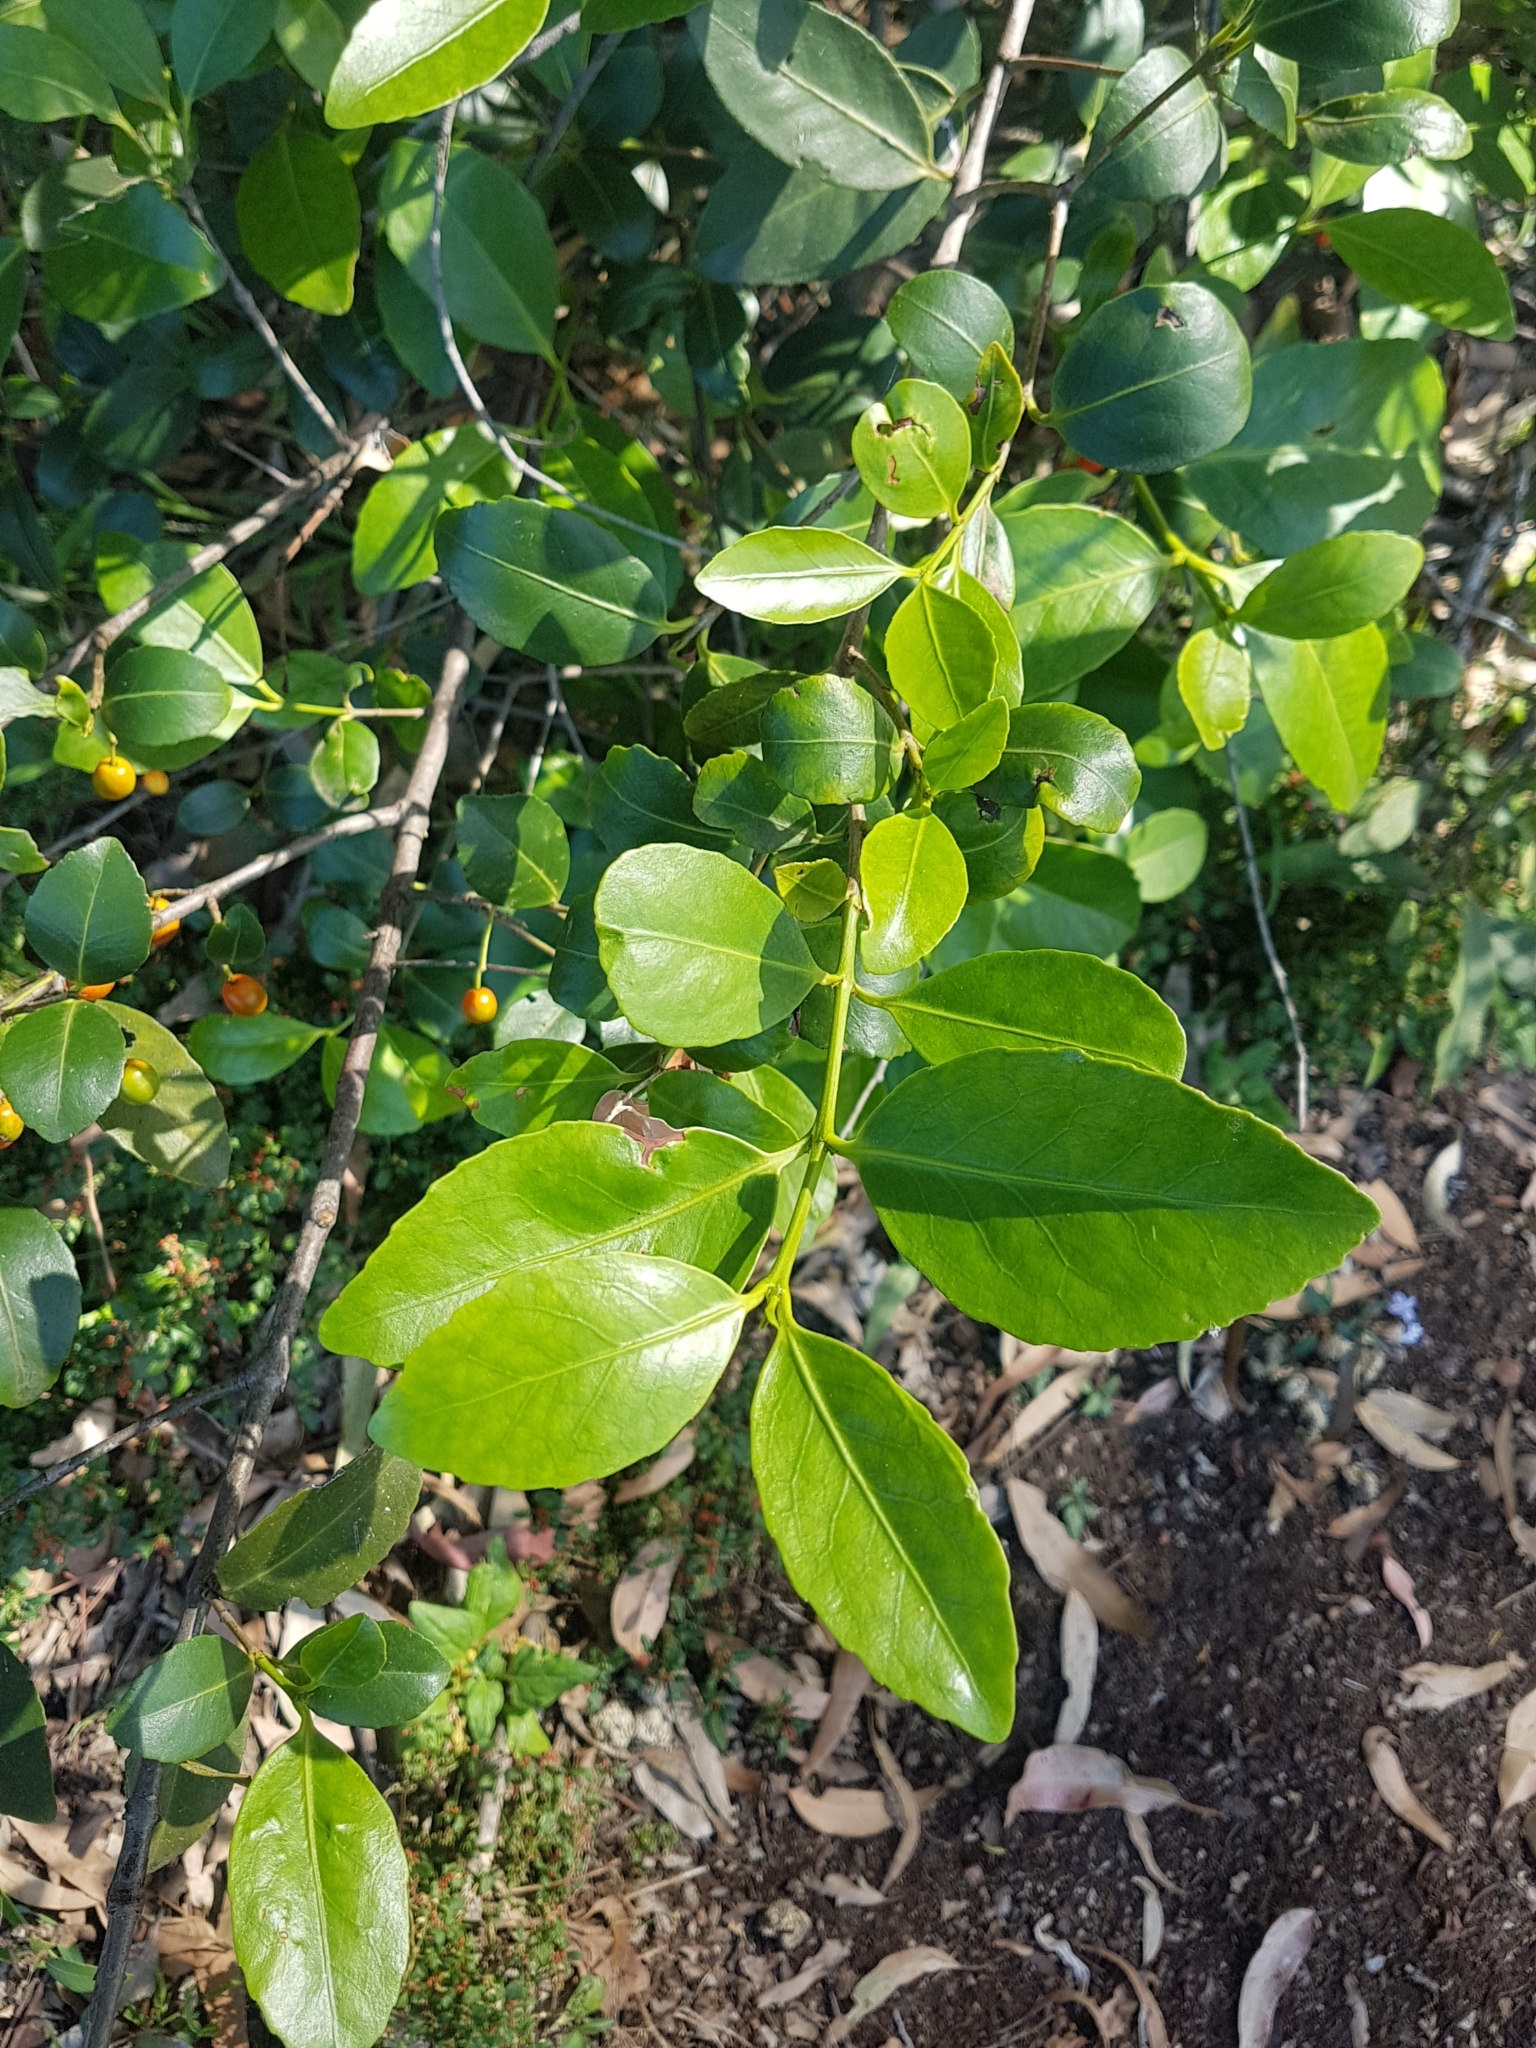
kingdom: Plantae
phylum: Tracheophyta
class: Magnoliopsida
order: Celastrales
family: Celastraceae
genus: Elaeodendron
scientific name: Elaeodendron australe
